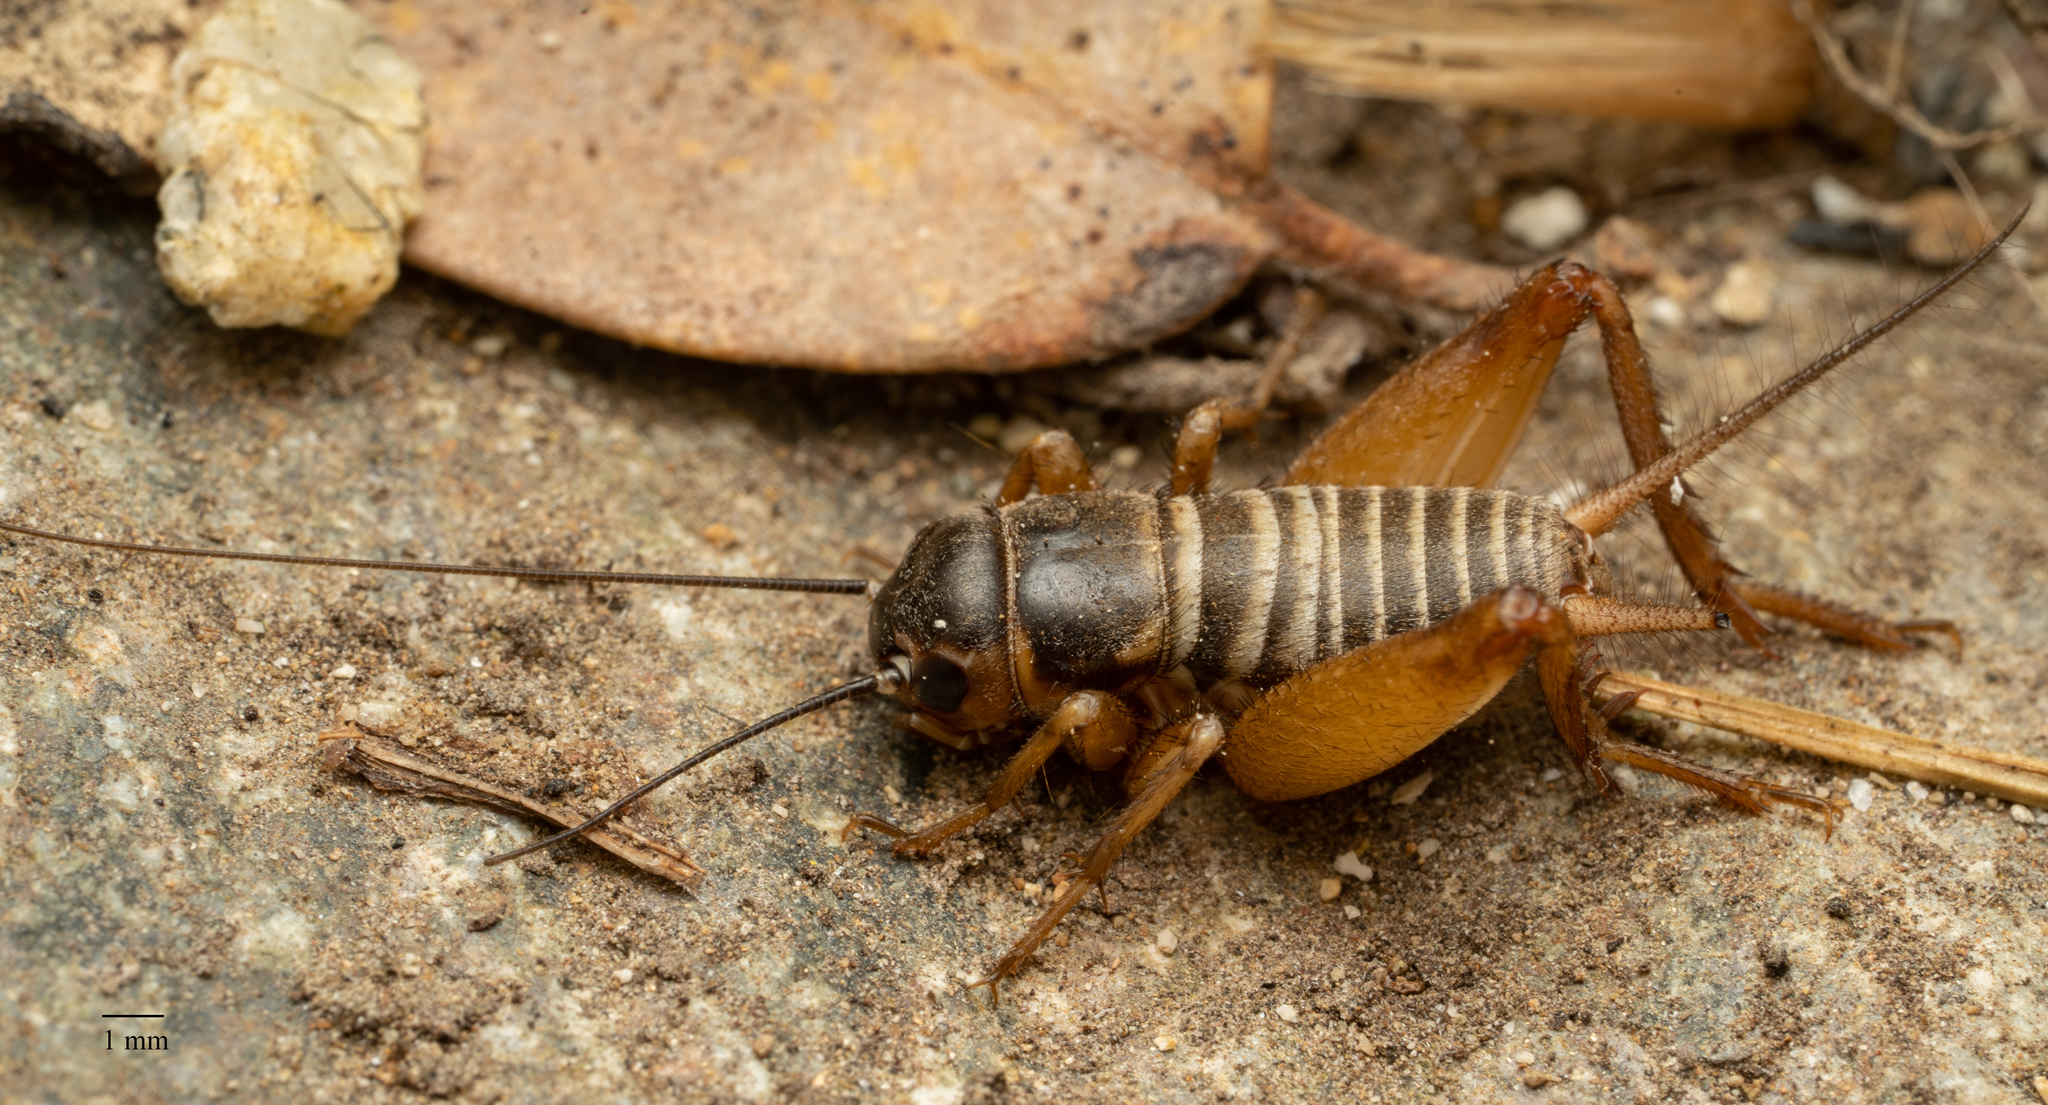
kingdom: Animalia
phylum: Arthropoda
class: Insecta
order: Orthoptera
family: Gryllidae
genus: Gryllus
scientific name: Gryllus
